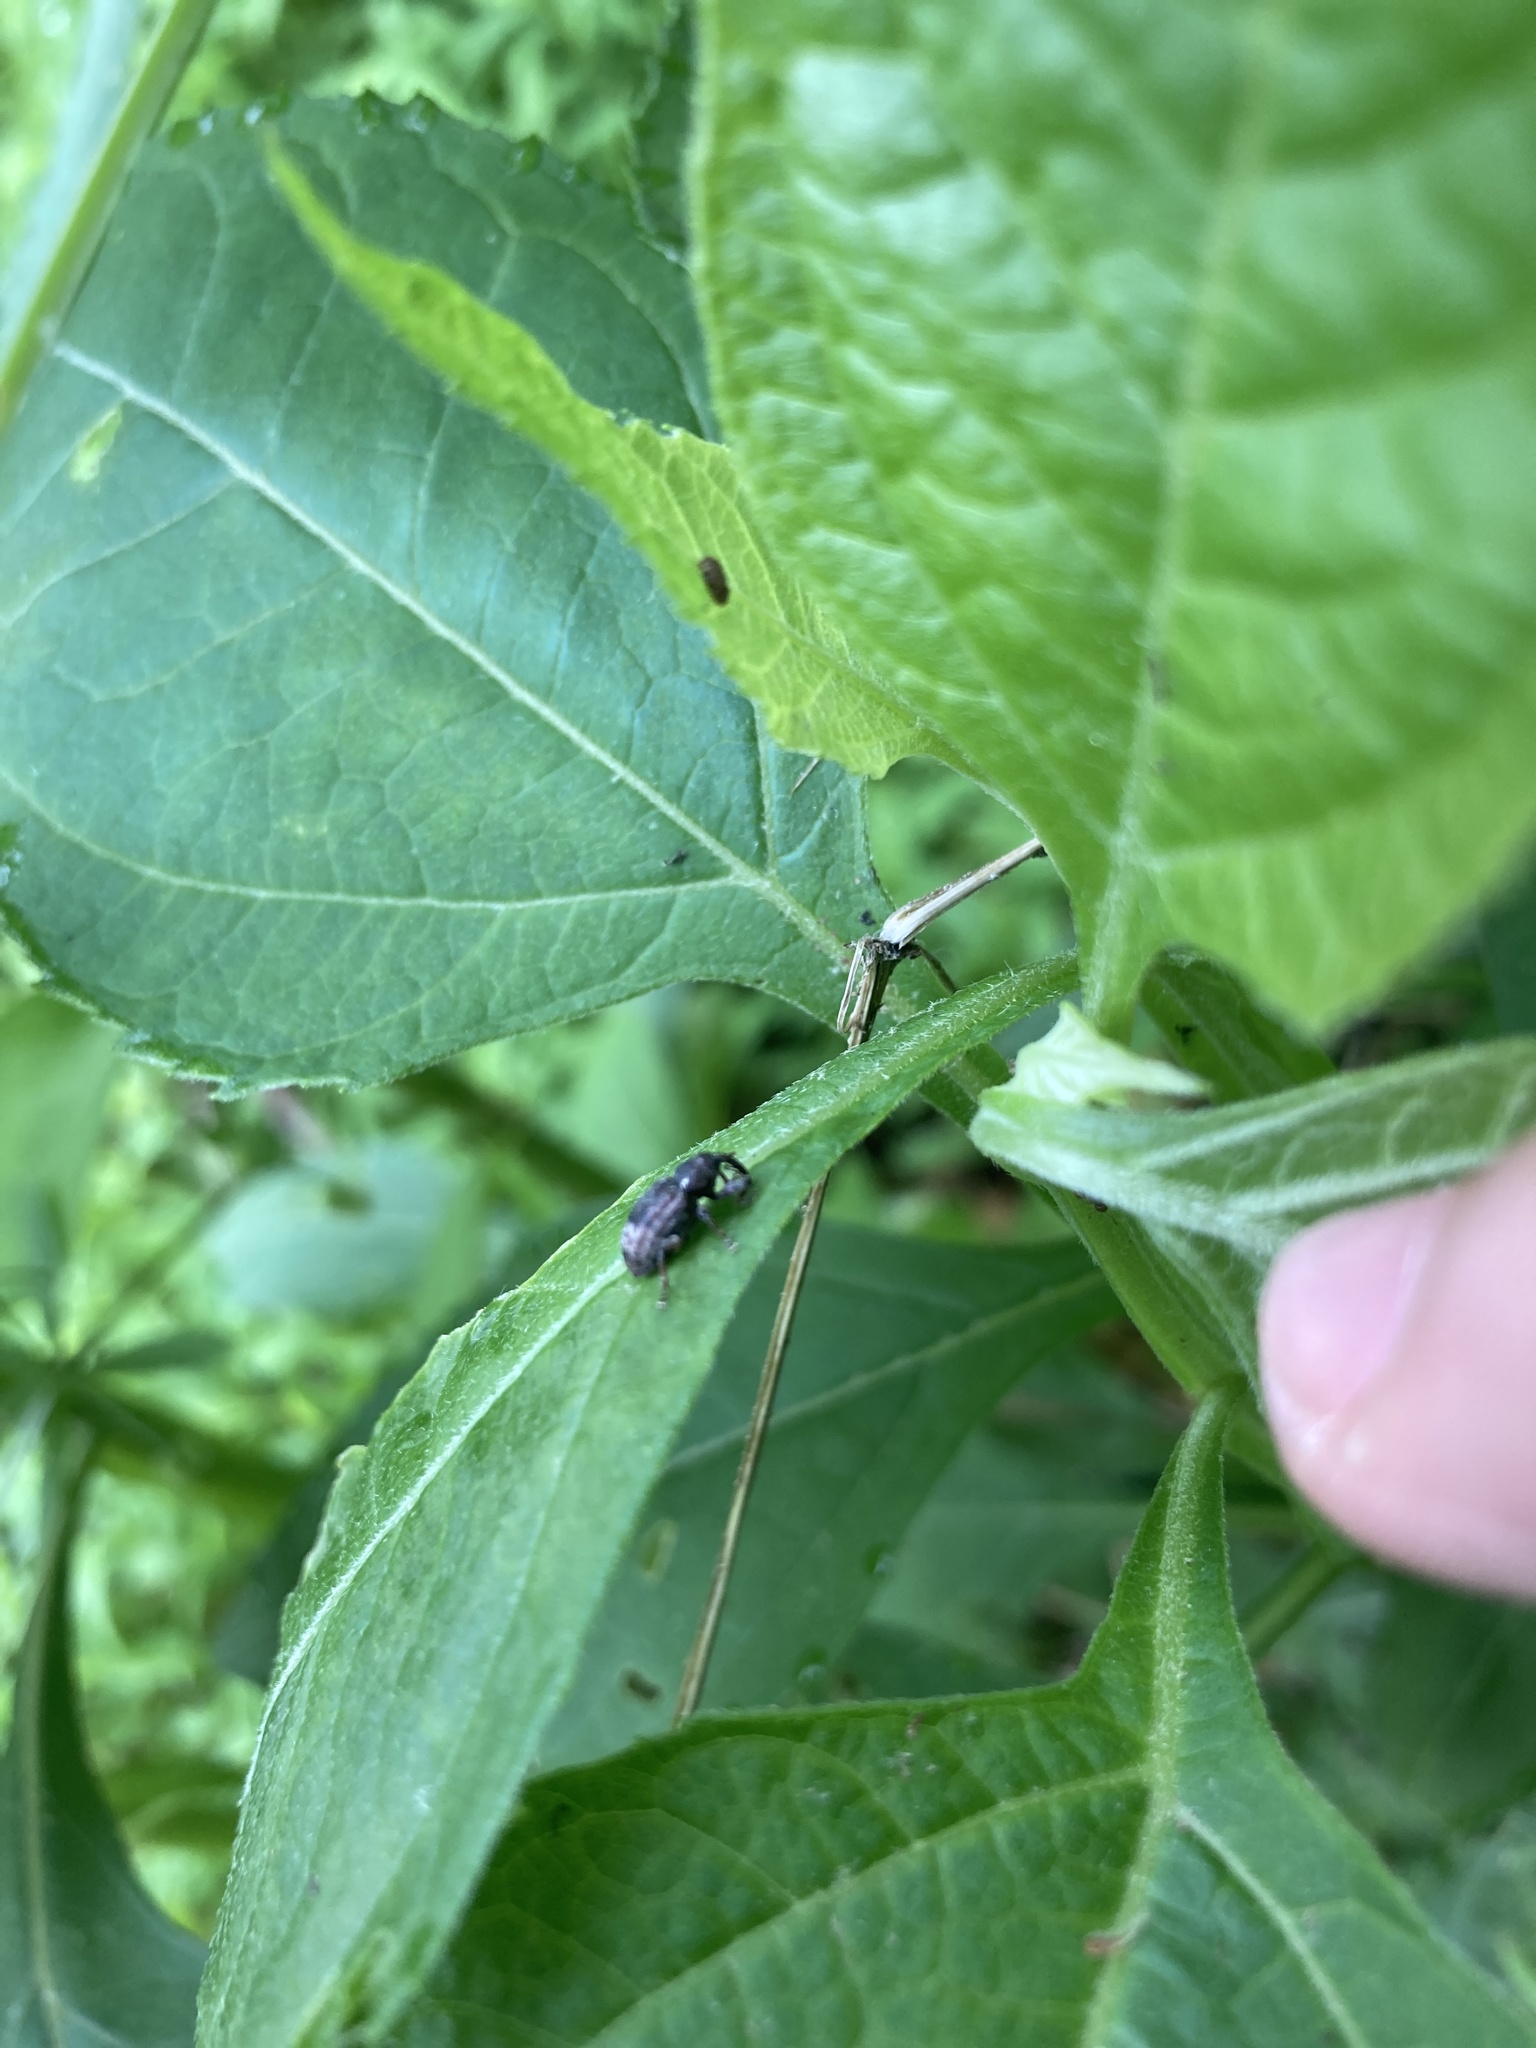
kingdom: Animalia
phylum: Arthropoda
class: Insecta
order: Coleoptera
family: Curculionidae
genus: Rhyssomatus
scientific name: Rhyssomatus lineaticollis
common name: Milkweed stem weevil
